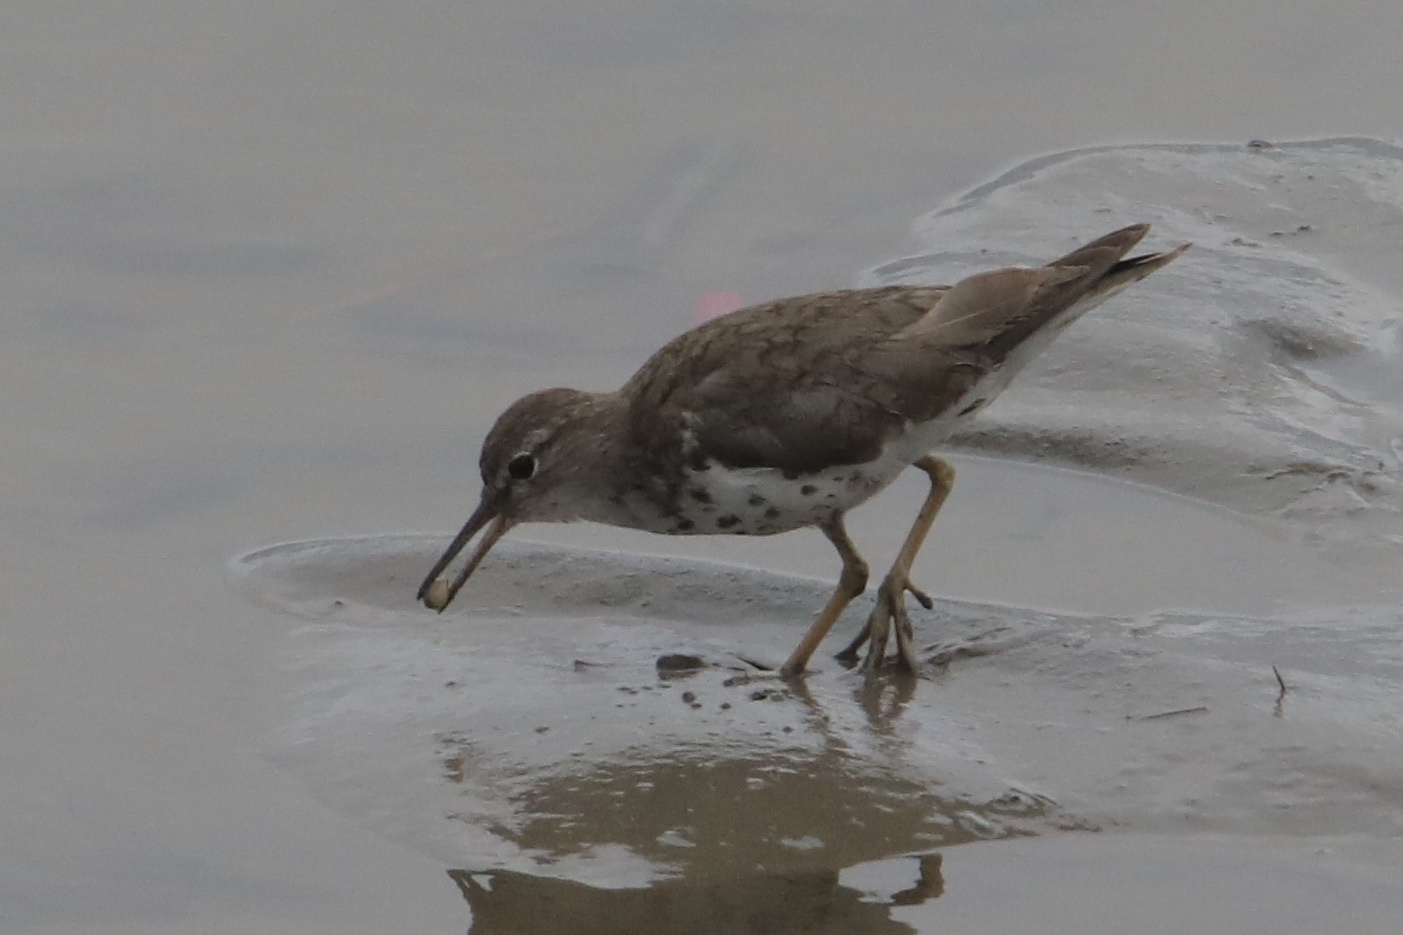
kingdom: Animalia
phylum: Chordata
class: Aves
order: Charadriiformes
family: Scolopacidae
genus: Actitis
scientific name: Actitis macularius
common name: Spotted sandpiper
